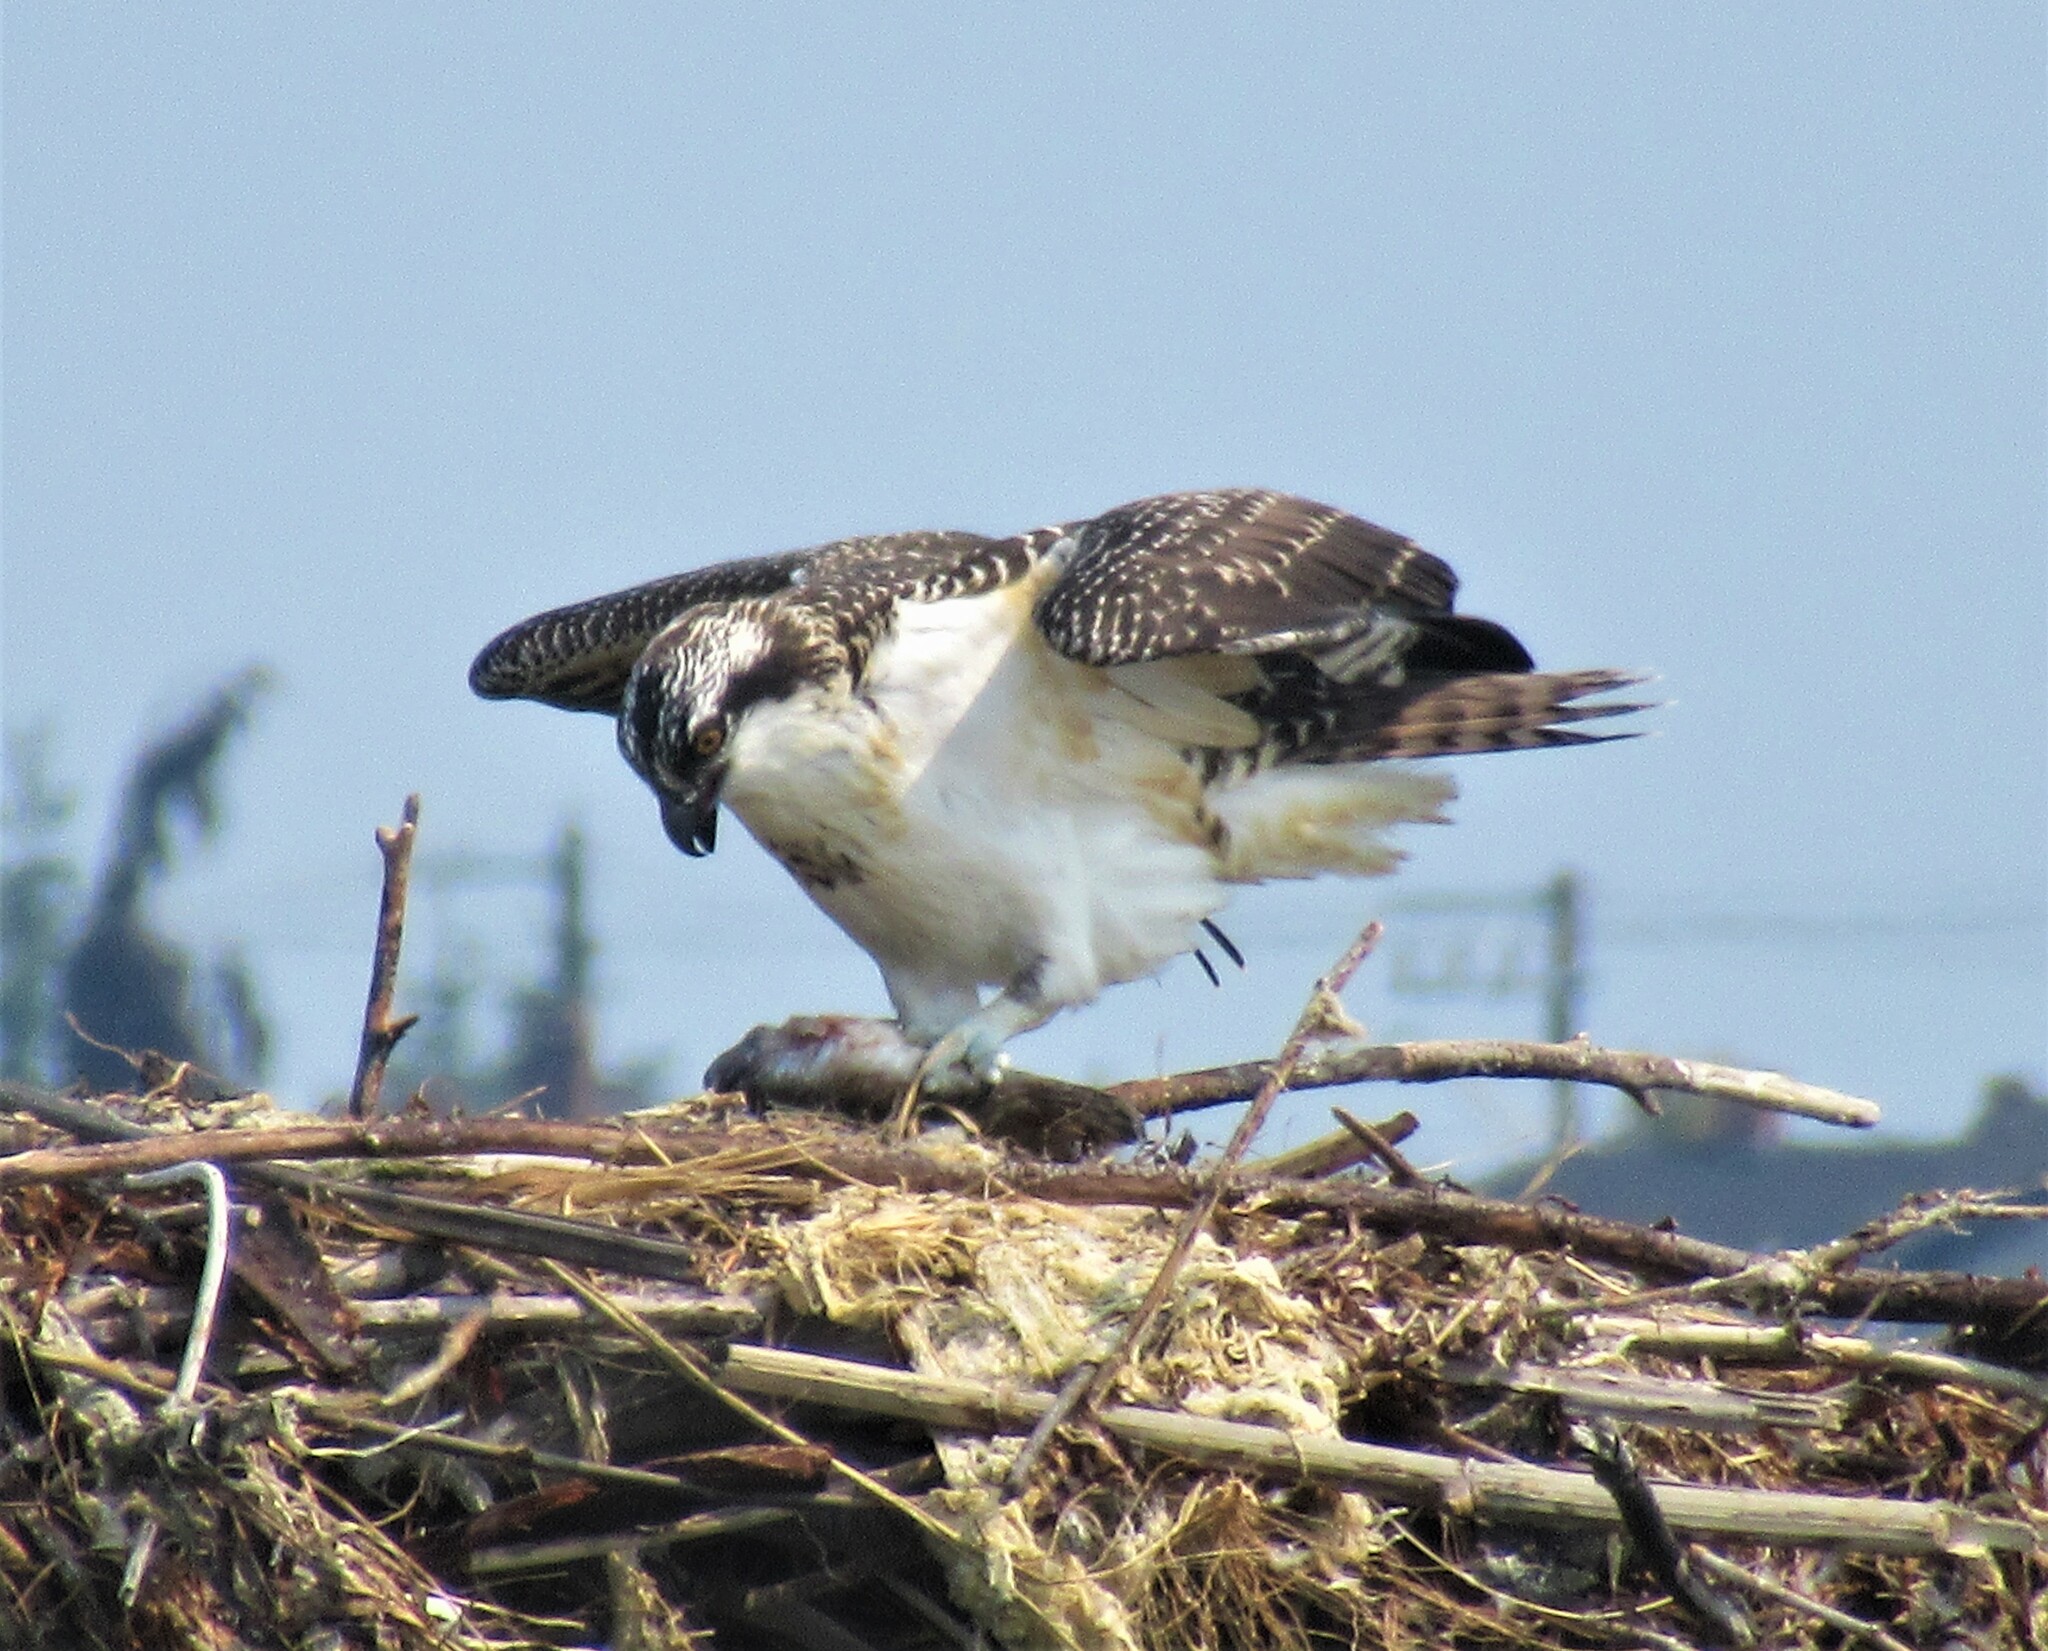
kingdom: Animalia
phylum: Chordata
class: Aves
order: Accipitriformes
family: Pandionidae
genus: Pandion
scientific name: Pandion haliaetus
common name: Osprey
